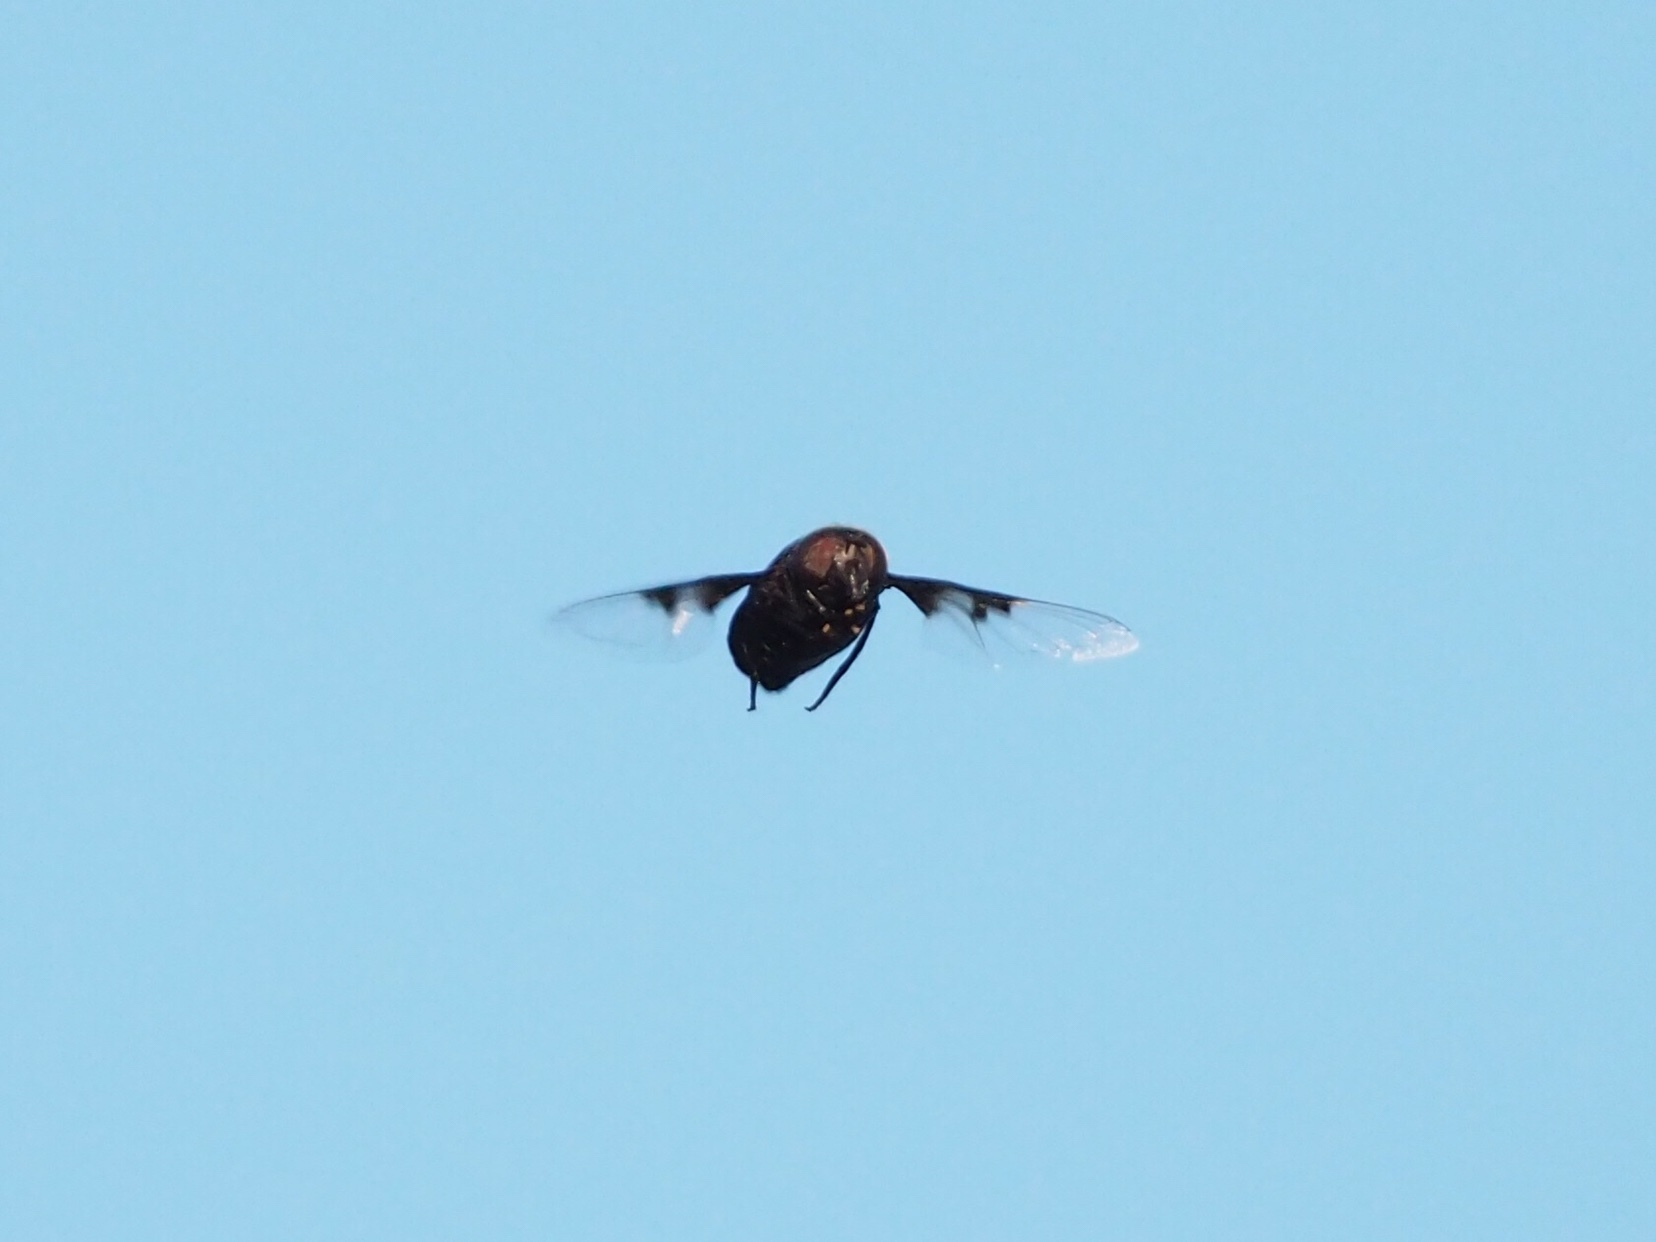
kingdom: Animalia
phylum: Arthropoda
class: Insecta
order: Diptera
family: Syrphidae
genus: Copestylum
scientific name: Copestylum
